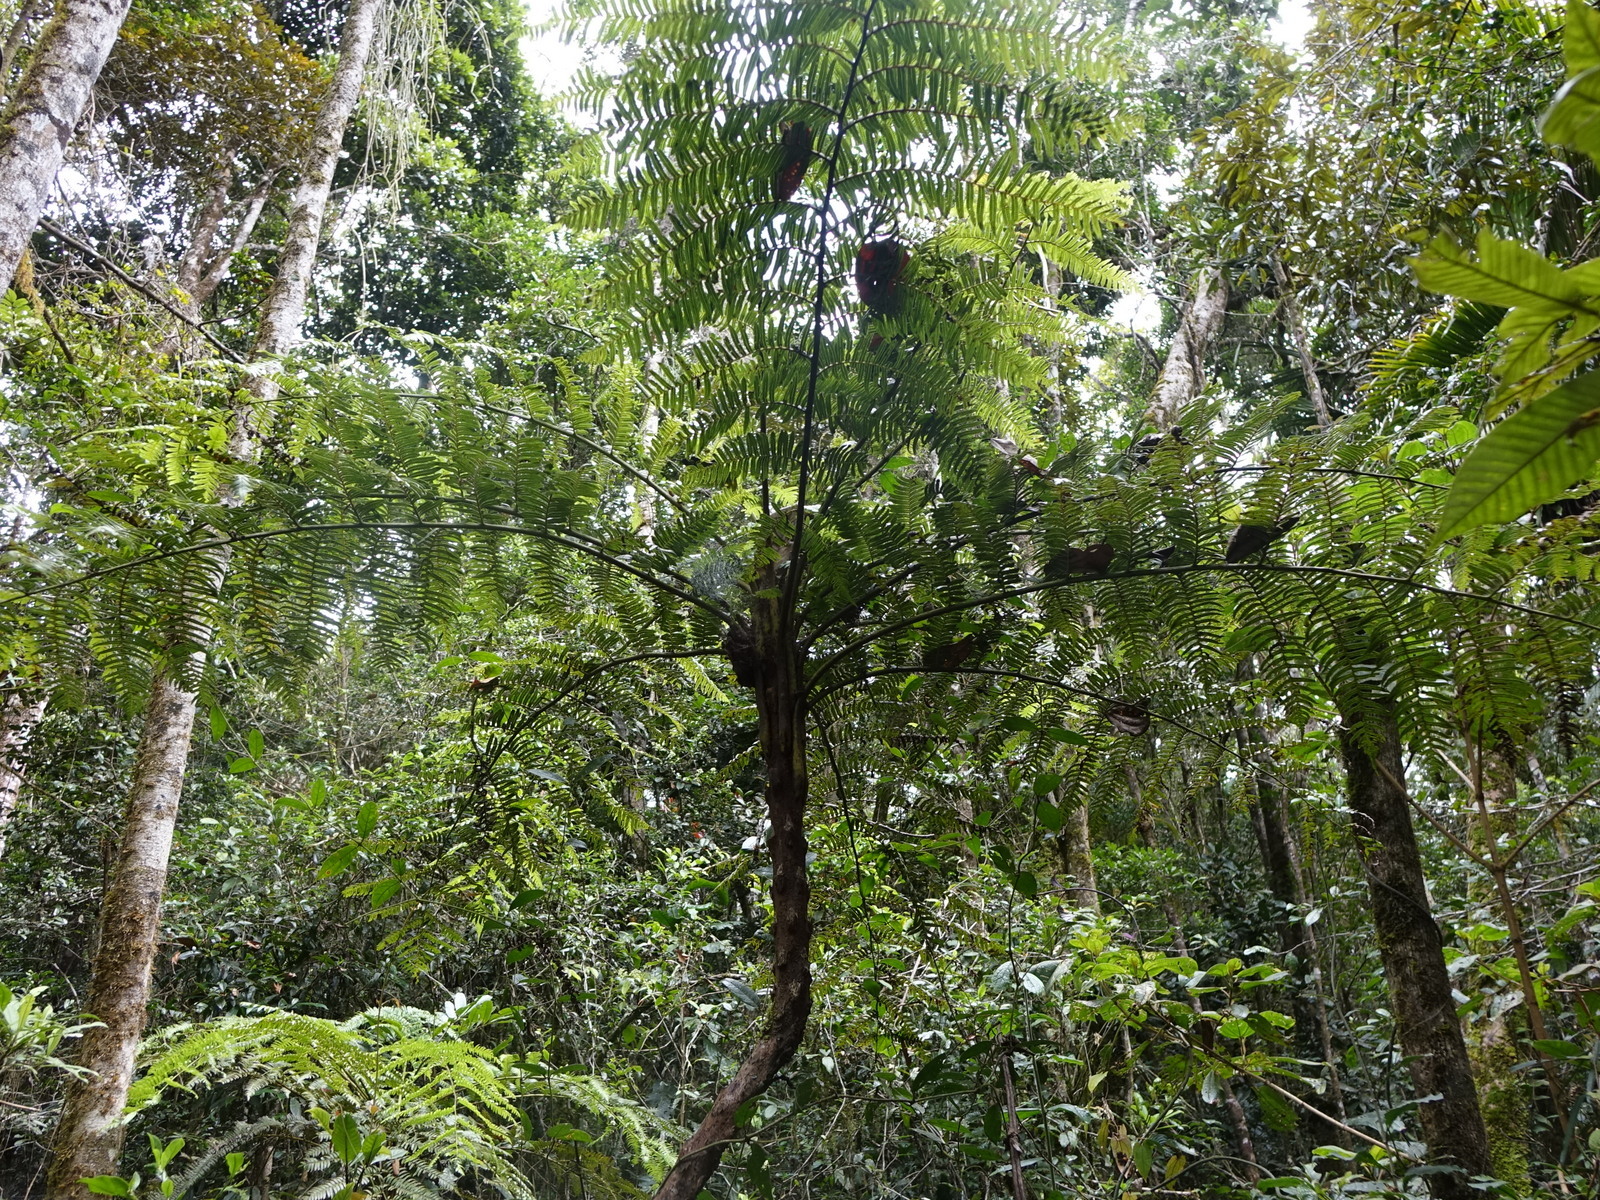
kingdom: Plantae
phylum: Tracheophyta
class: Polypodiopsida
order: Cyatheales
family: Cyatheaceae
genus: Alsophila
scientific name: Alsophila borbonica
